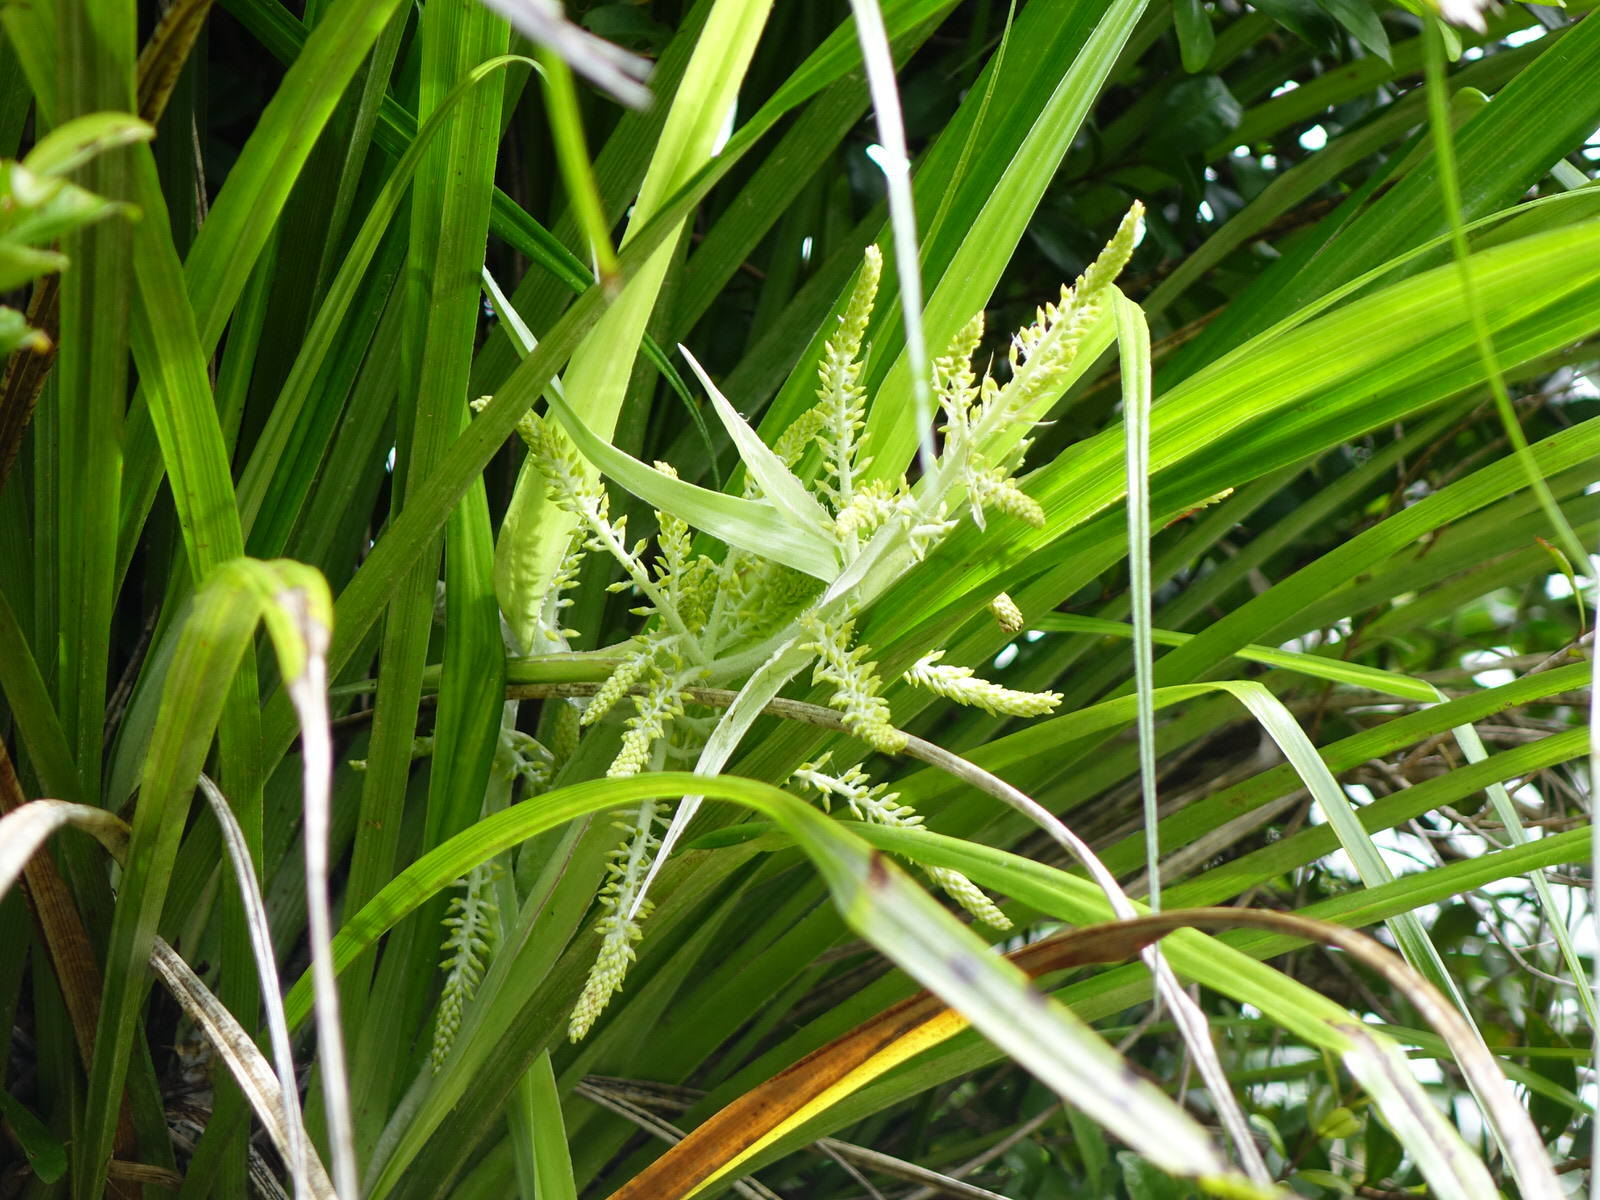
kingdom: Plantae
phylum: Tracheophyta
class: Liliopsida
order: Asparagales
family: Asteliaceae
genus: Astelia
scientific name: Astelia solandri
